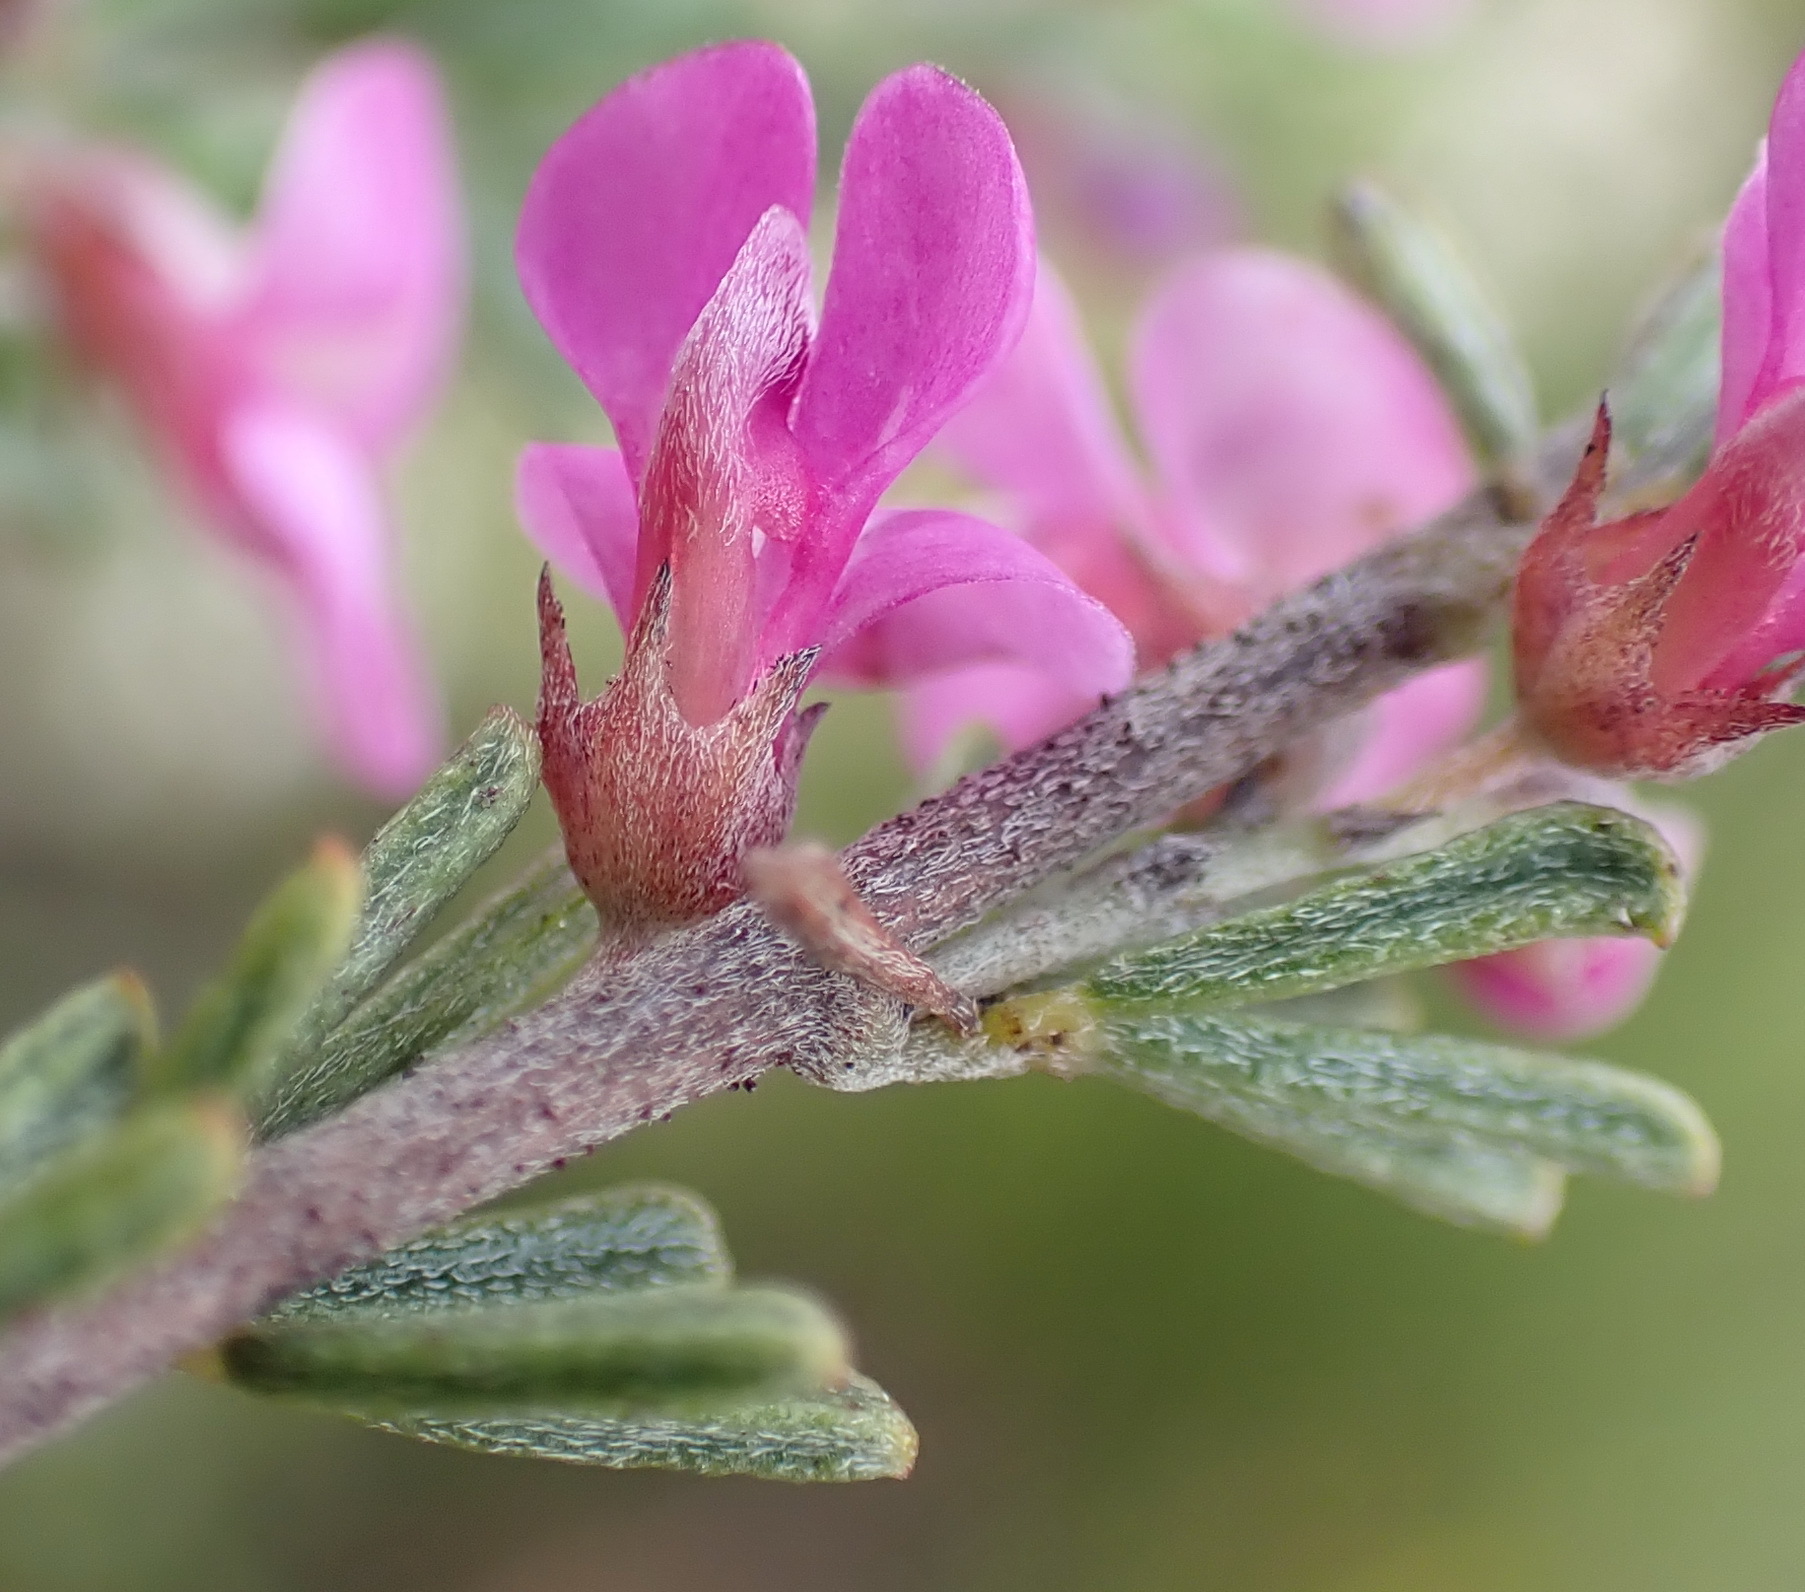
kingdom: Plantae
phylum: Tracheophyta
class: Magnoliopsida
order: Fabales
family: Fabaceae
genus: Indigofera
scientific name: Indigofera pappei
